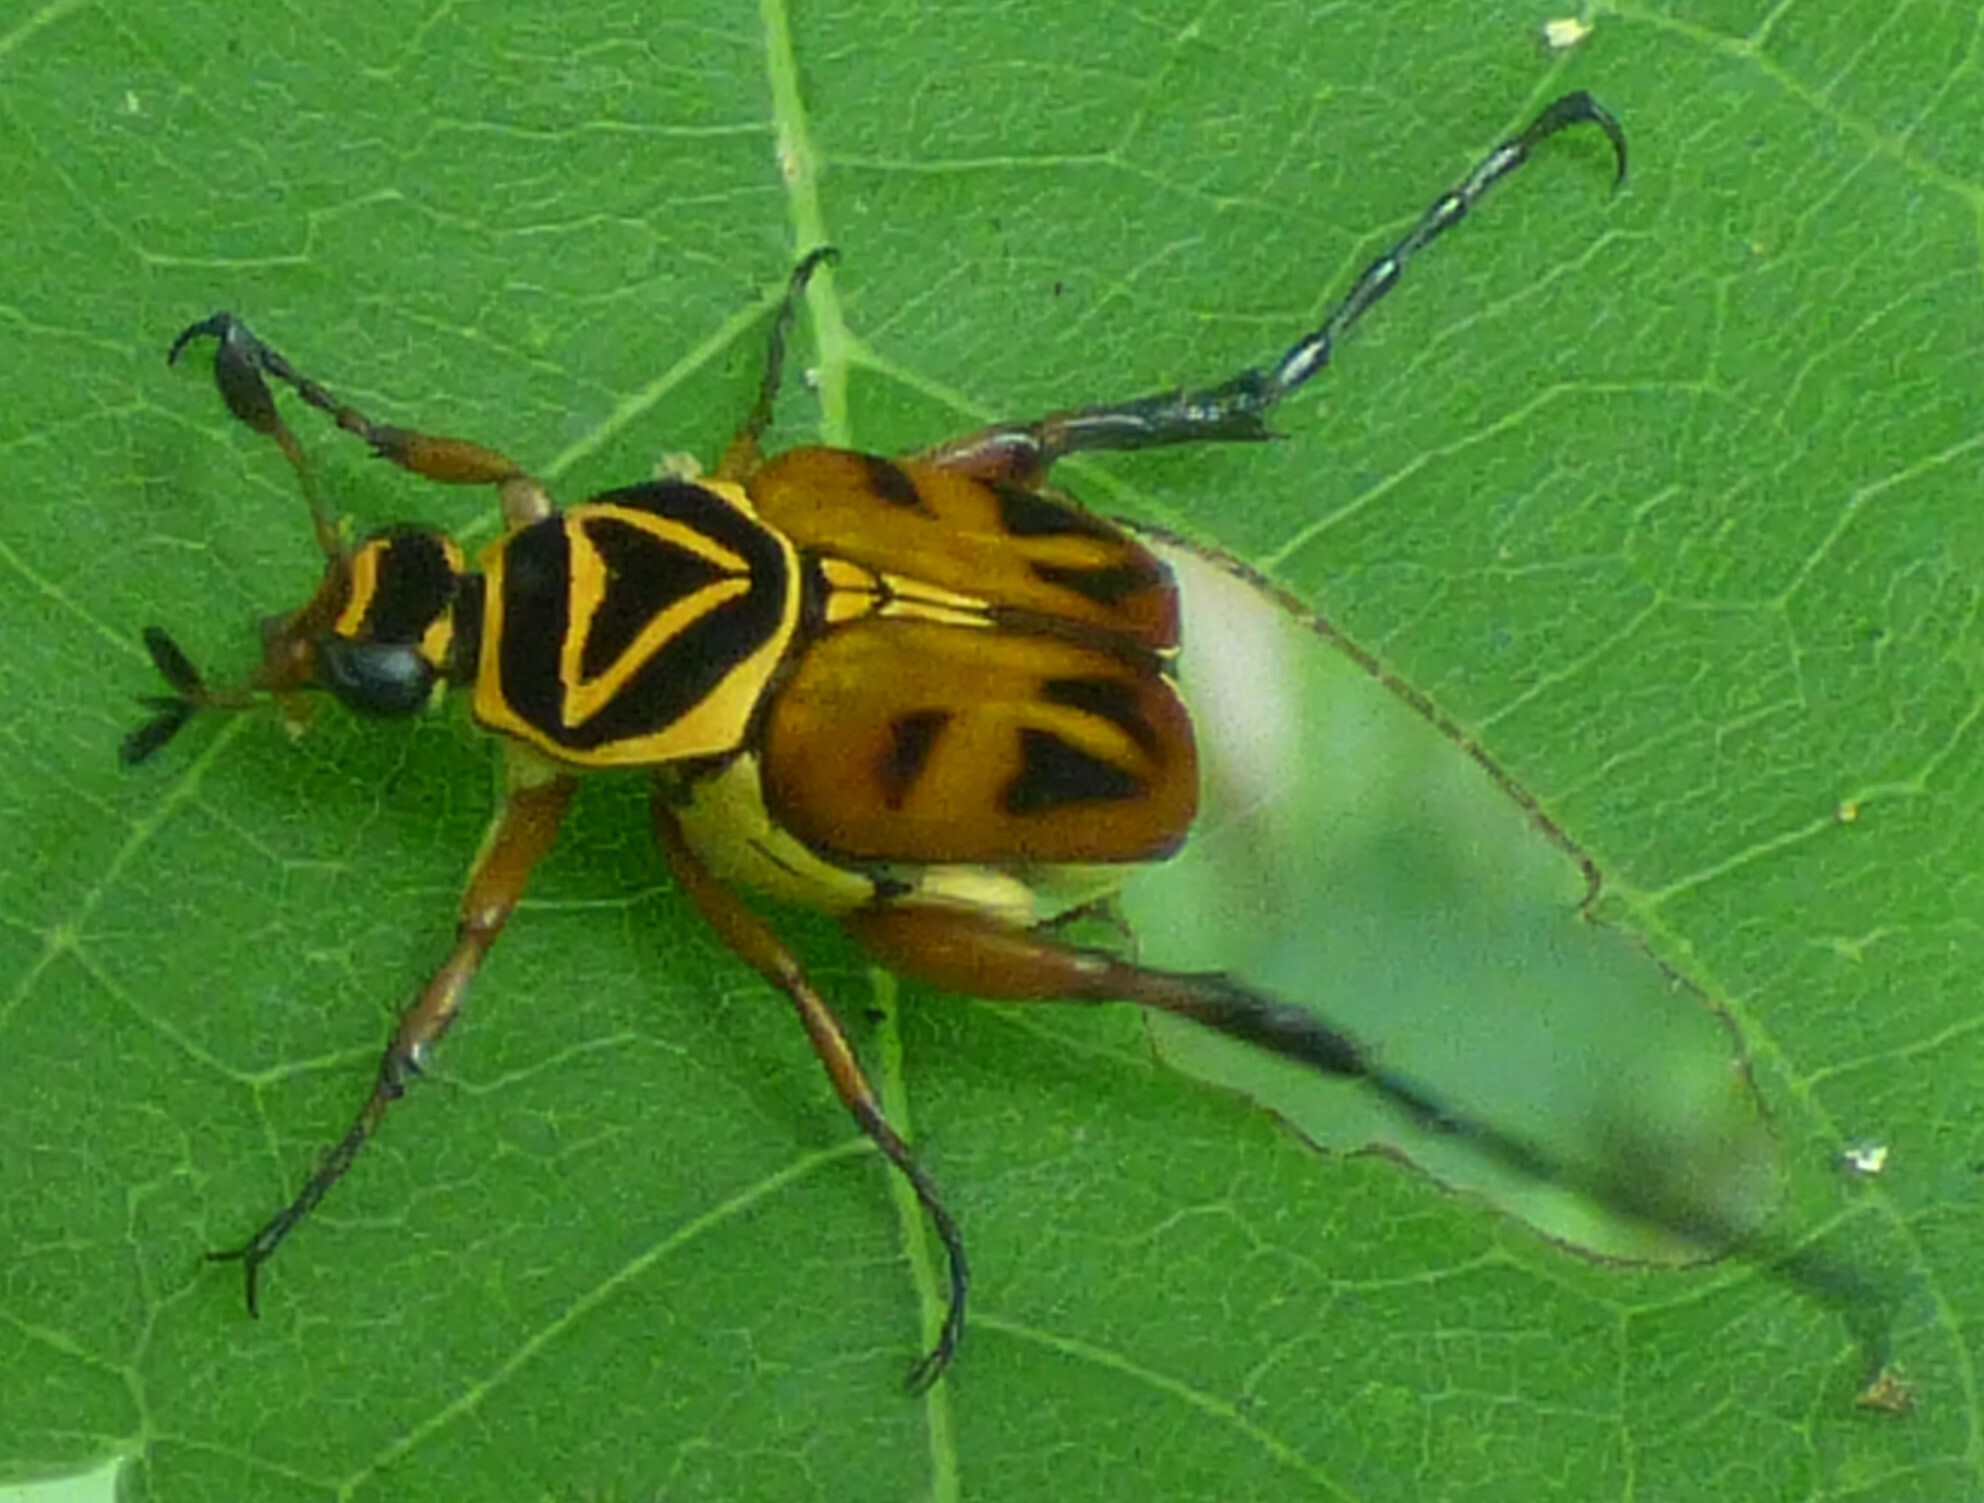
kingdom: Animalia
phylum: Arthropoda
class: Insecta
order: Coleoptera
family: Scarabaeidae
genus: Trigonopeltastes
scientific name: Trigonopeltastes delta
